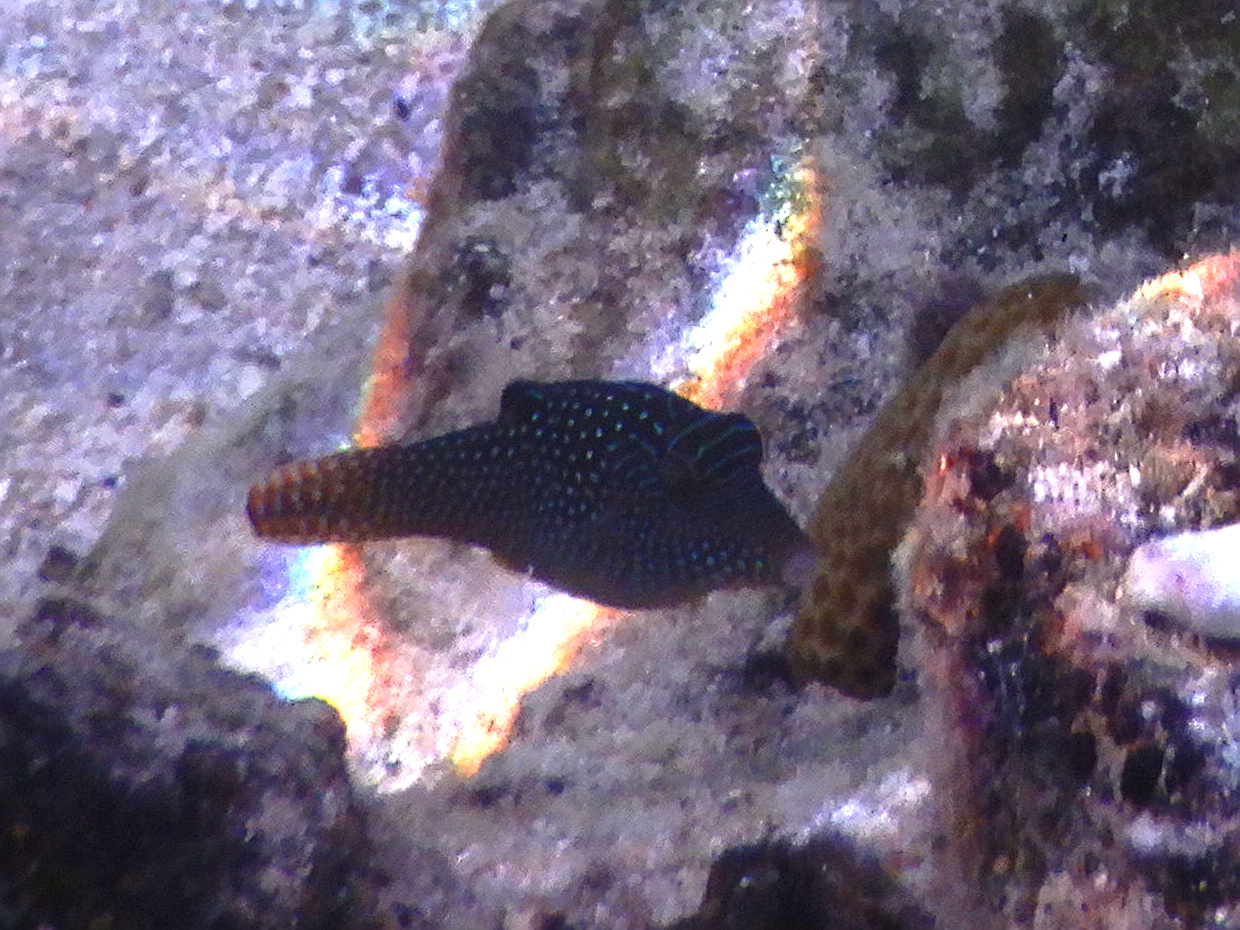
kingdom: Animalia
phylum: Chordata
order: Tetraodontiformes
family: Tetraodontidae
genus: Canthigaster
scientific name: Canthigaster solandri
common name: False-eye toby
